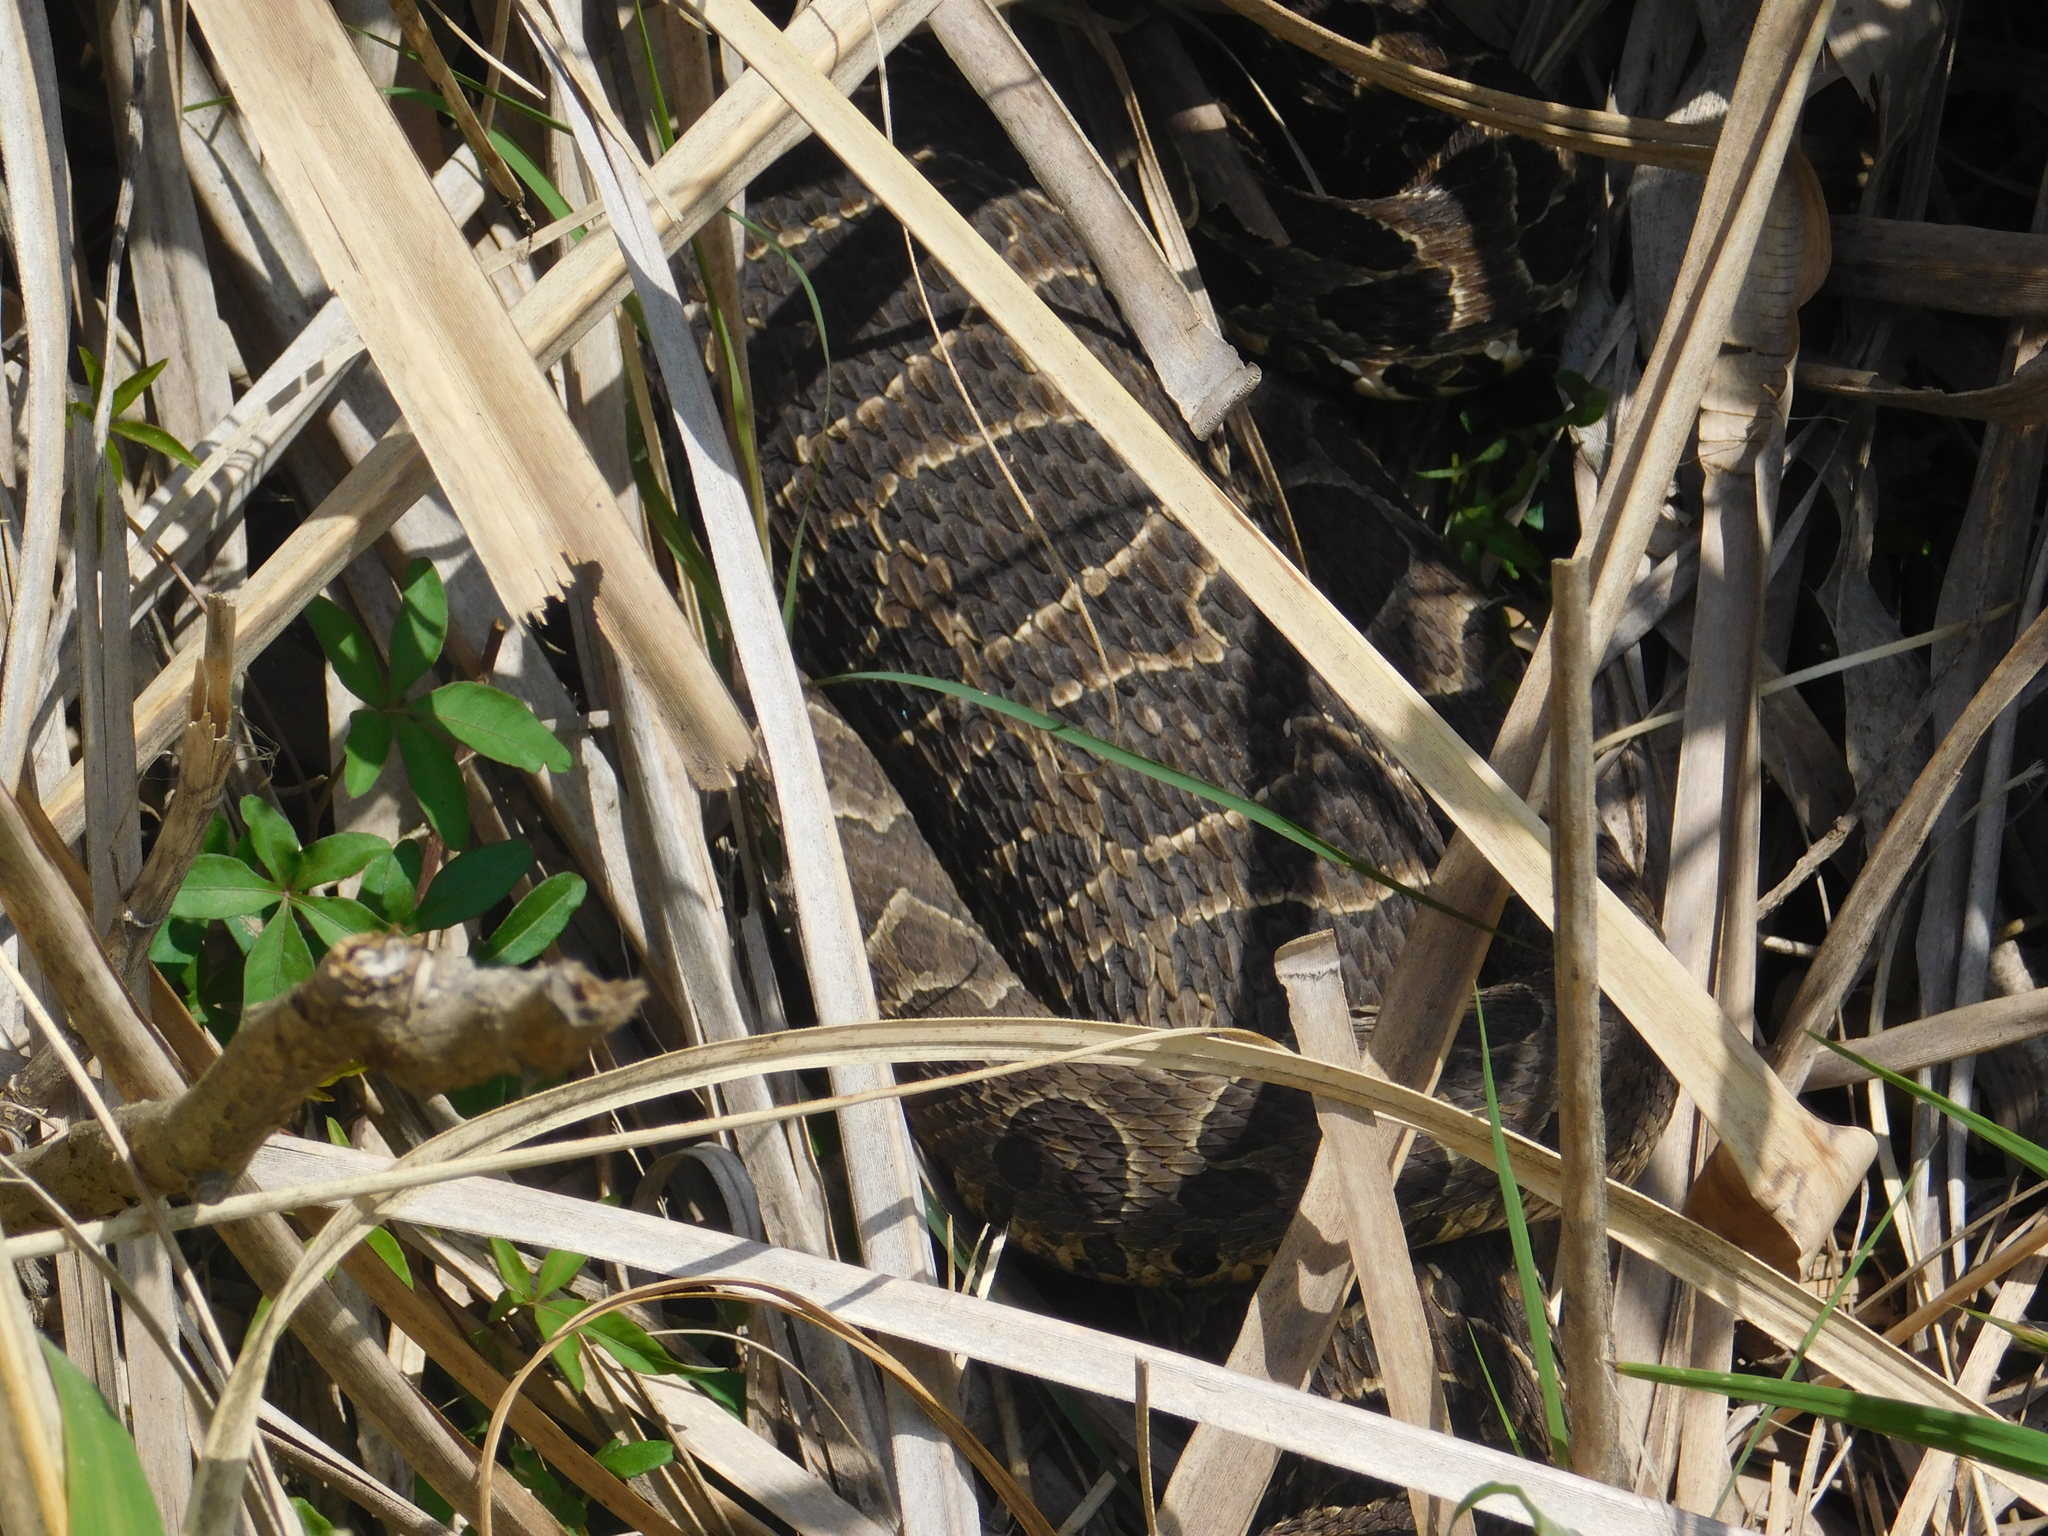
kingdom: Animalia
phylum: Chordata
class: Squamata
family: Viperidae
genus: Bothrops
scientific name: Bothrops alternatus
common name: Urutu
